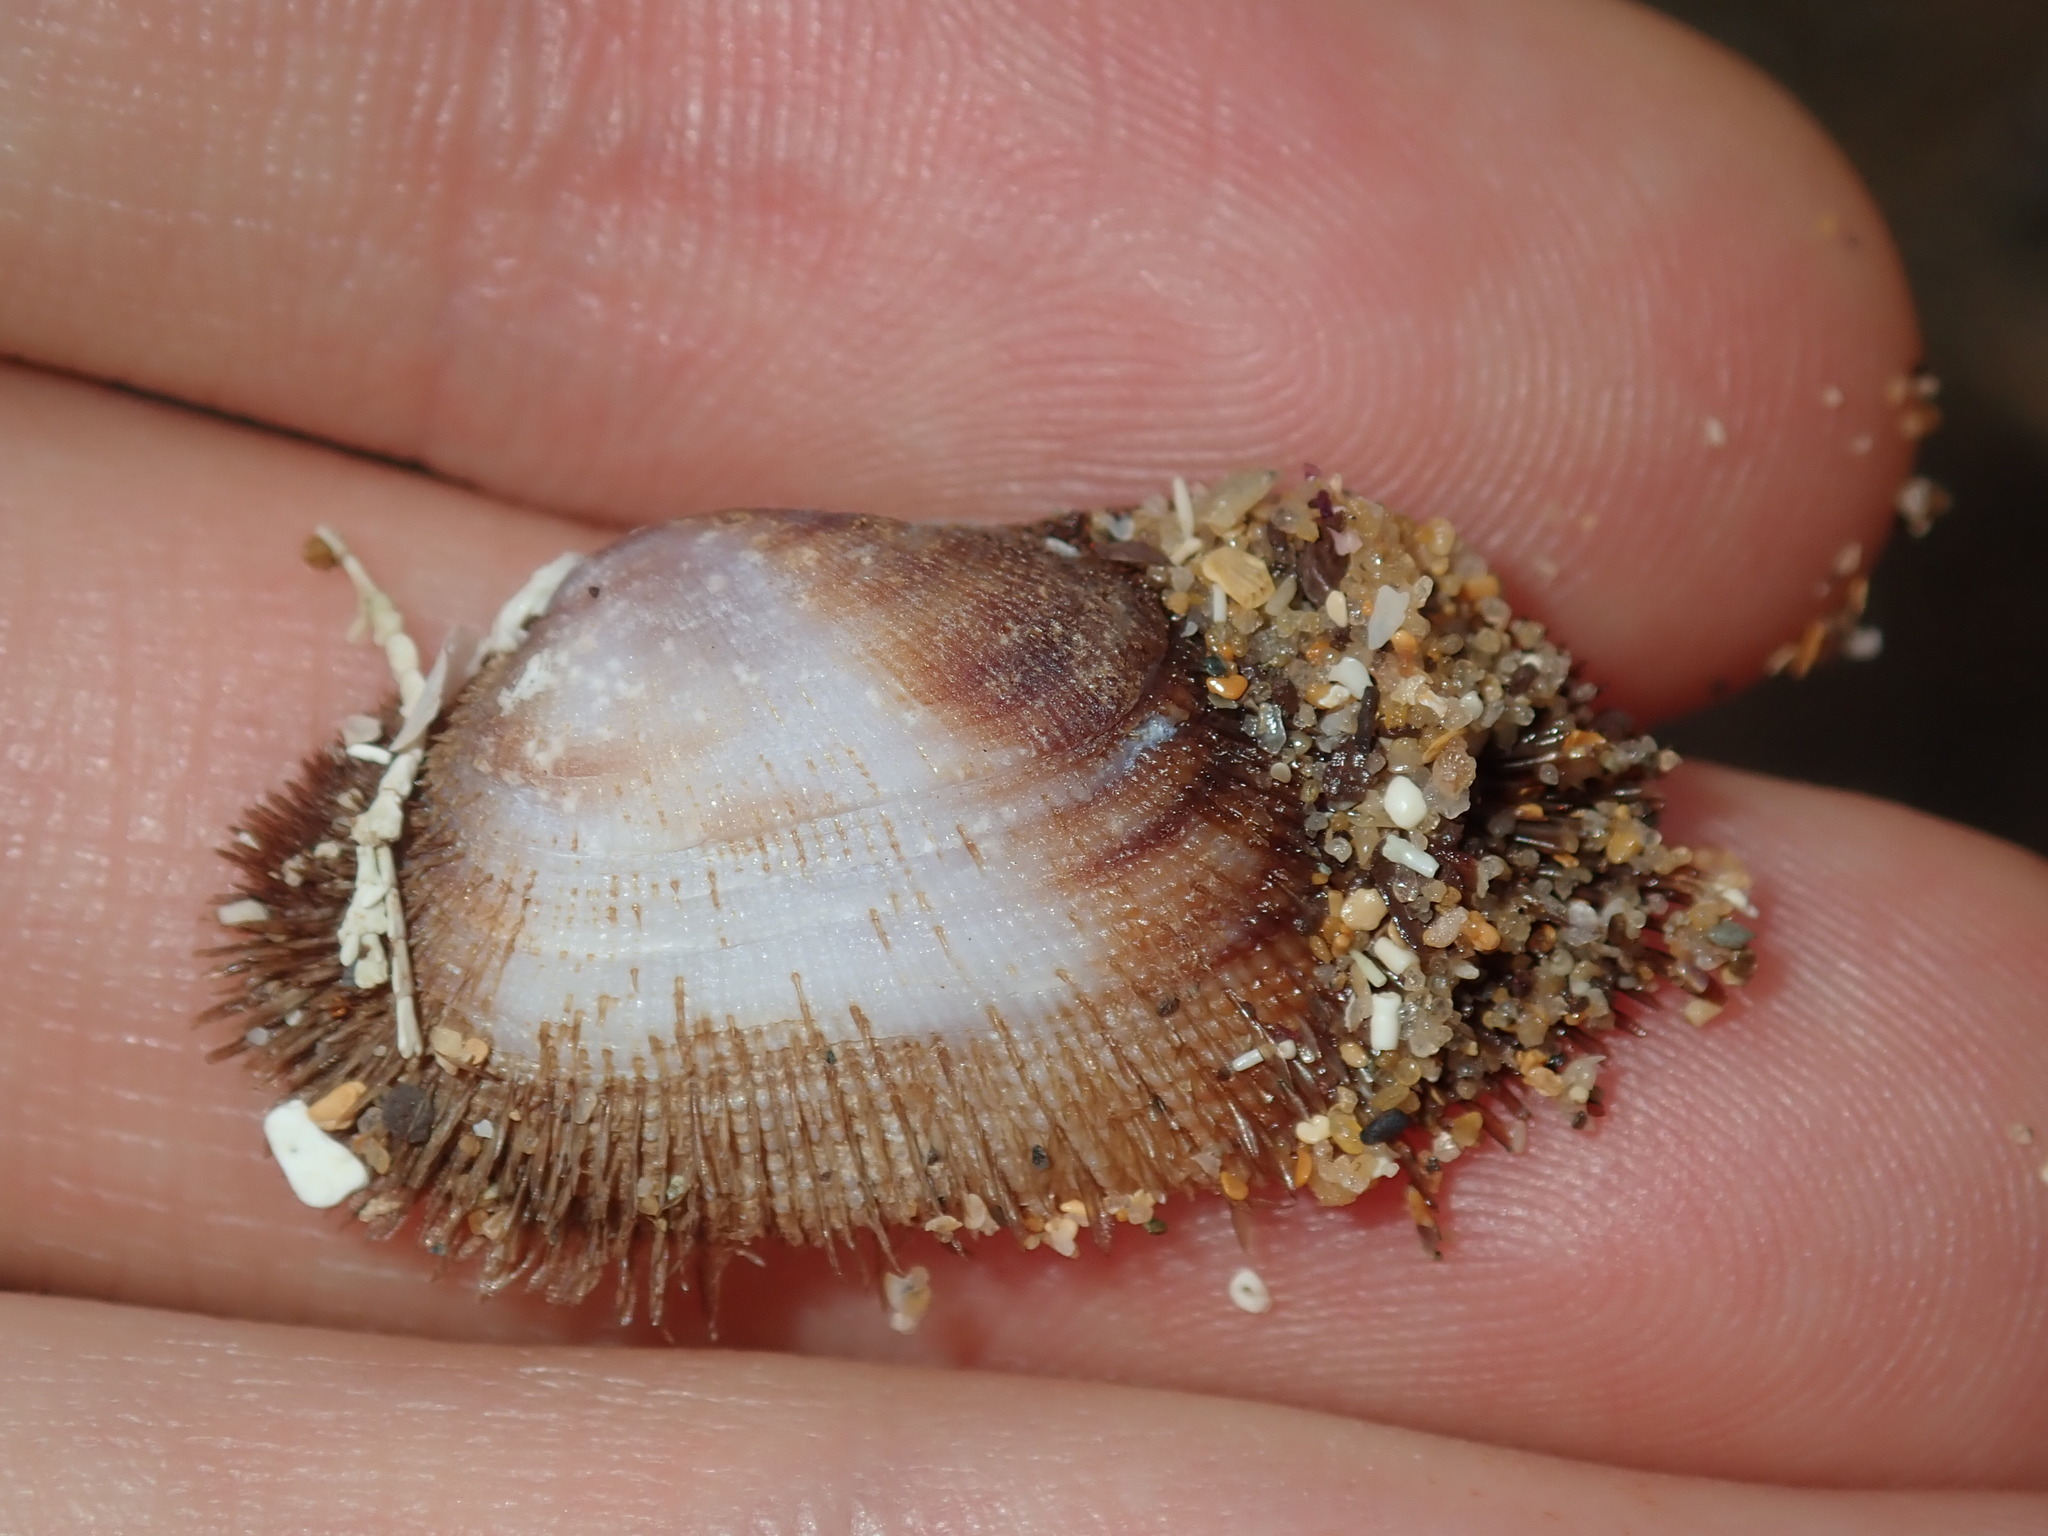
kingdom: Animalia
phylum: Mollusca
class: Bivalvia
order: Arcida
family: Arcidae
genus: Barbatia
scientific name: Barbatia pistachia
